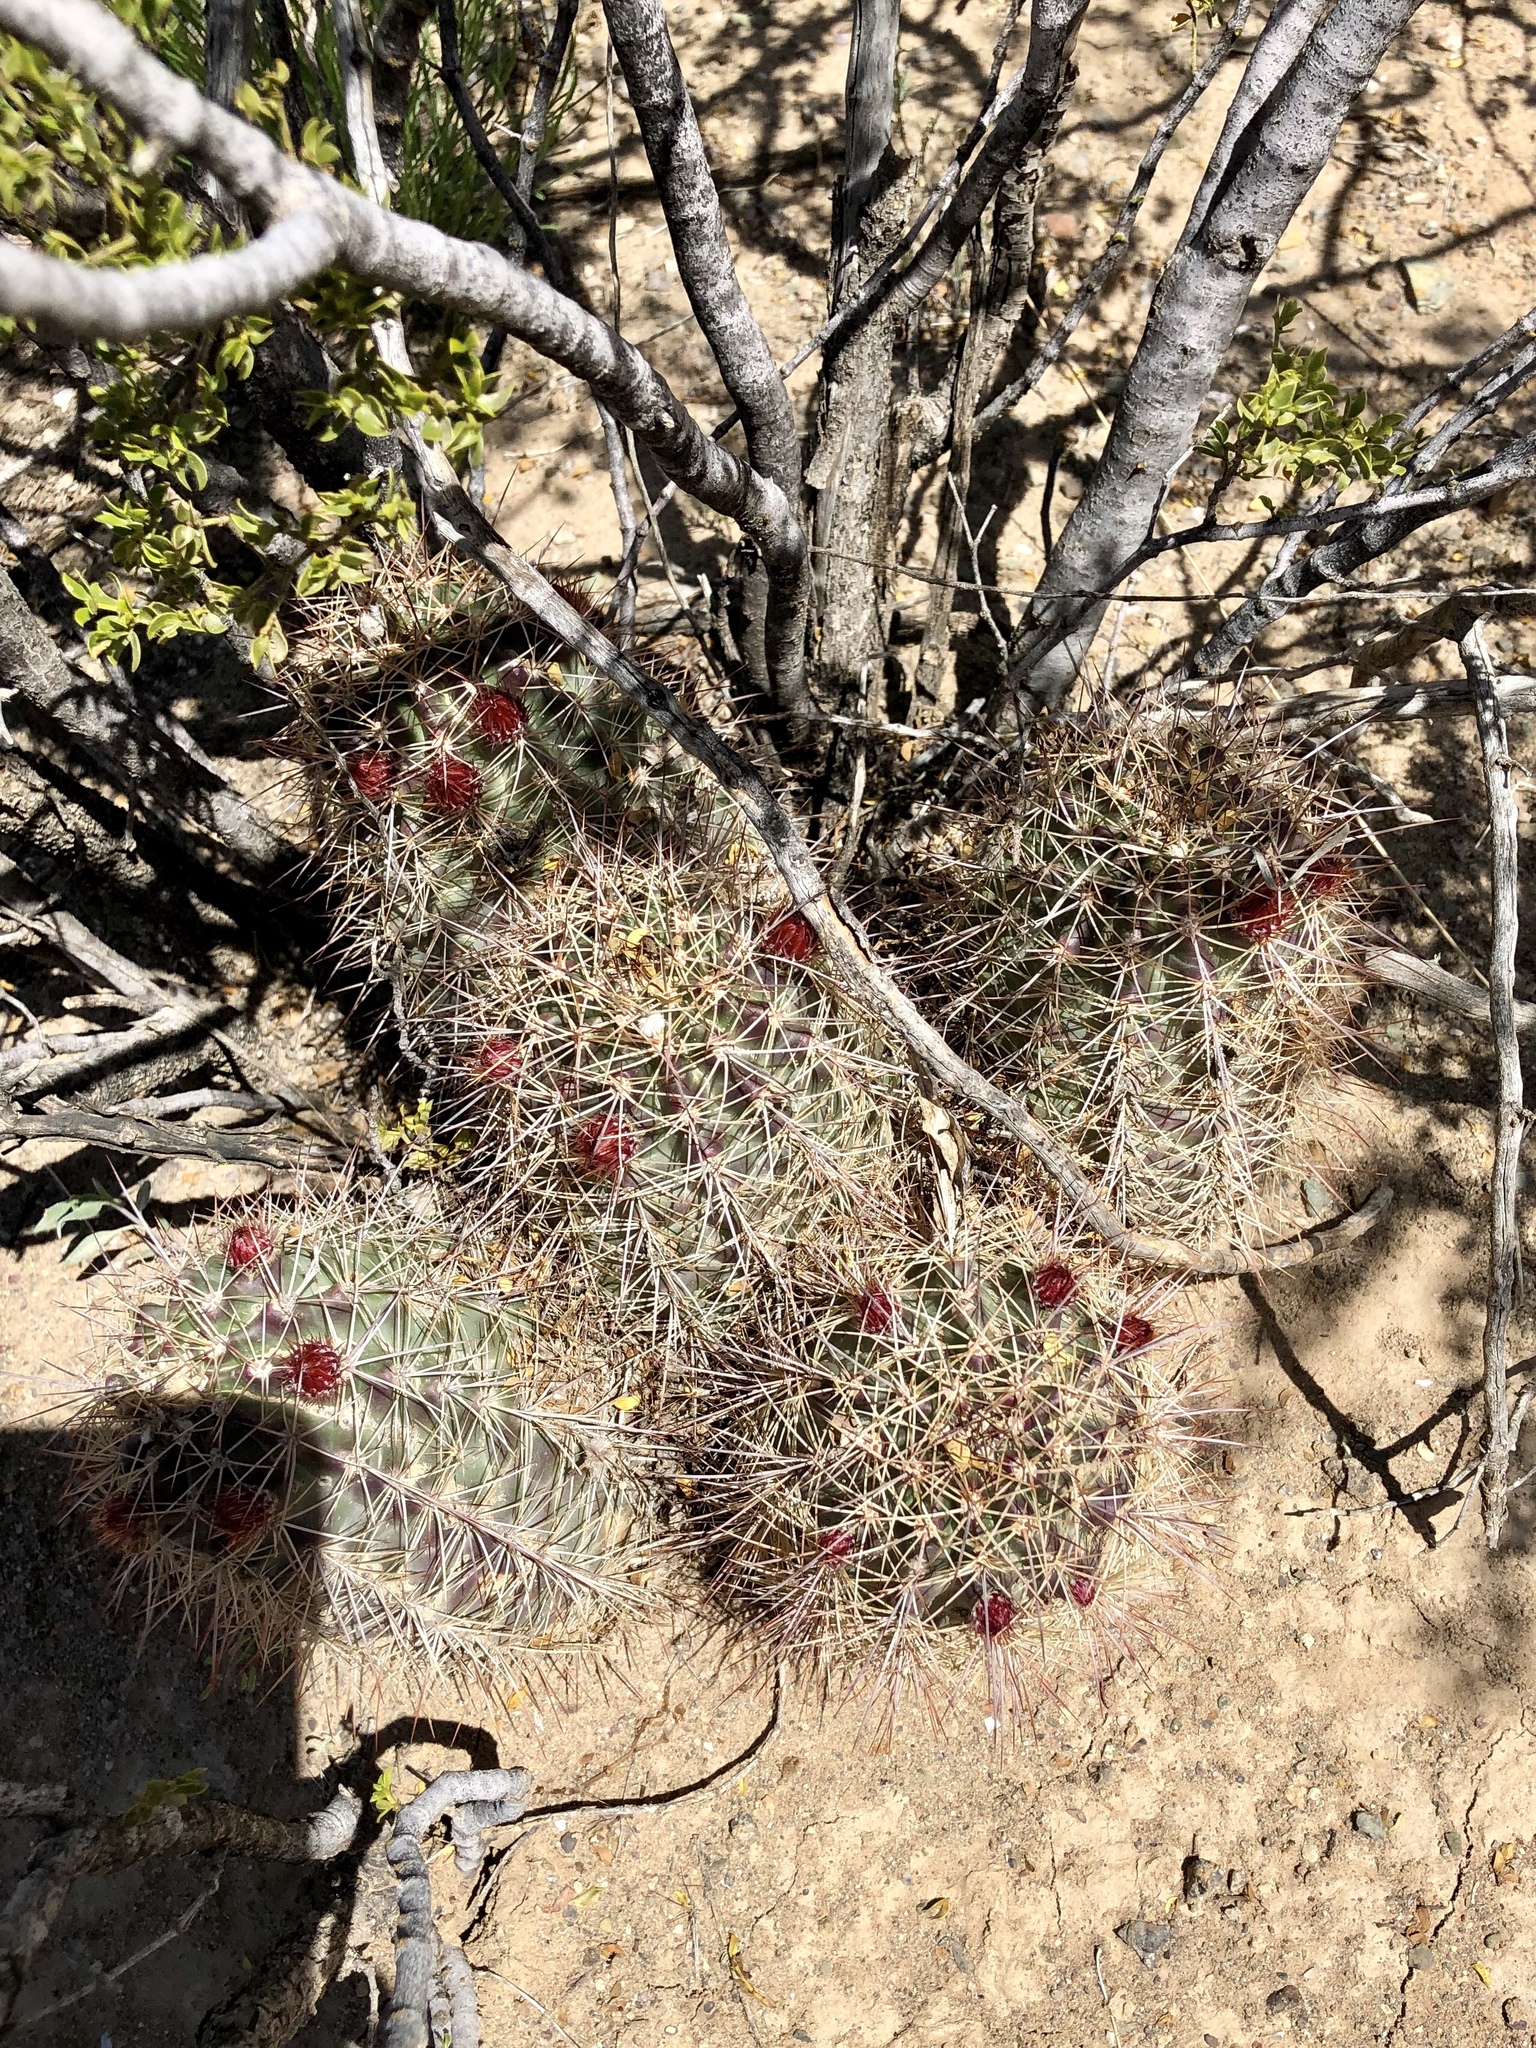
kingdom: Plantae
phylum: Tracheophyta
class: Magnoliopsida
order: Caryophyllales
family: Cactaceae
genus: Echinocereus
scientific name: Echinocereus coccineus
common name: Scarlet hedgehog cactus
